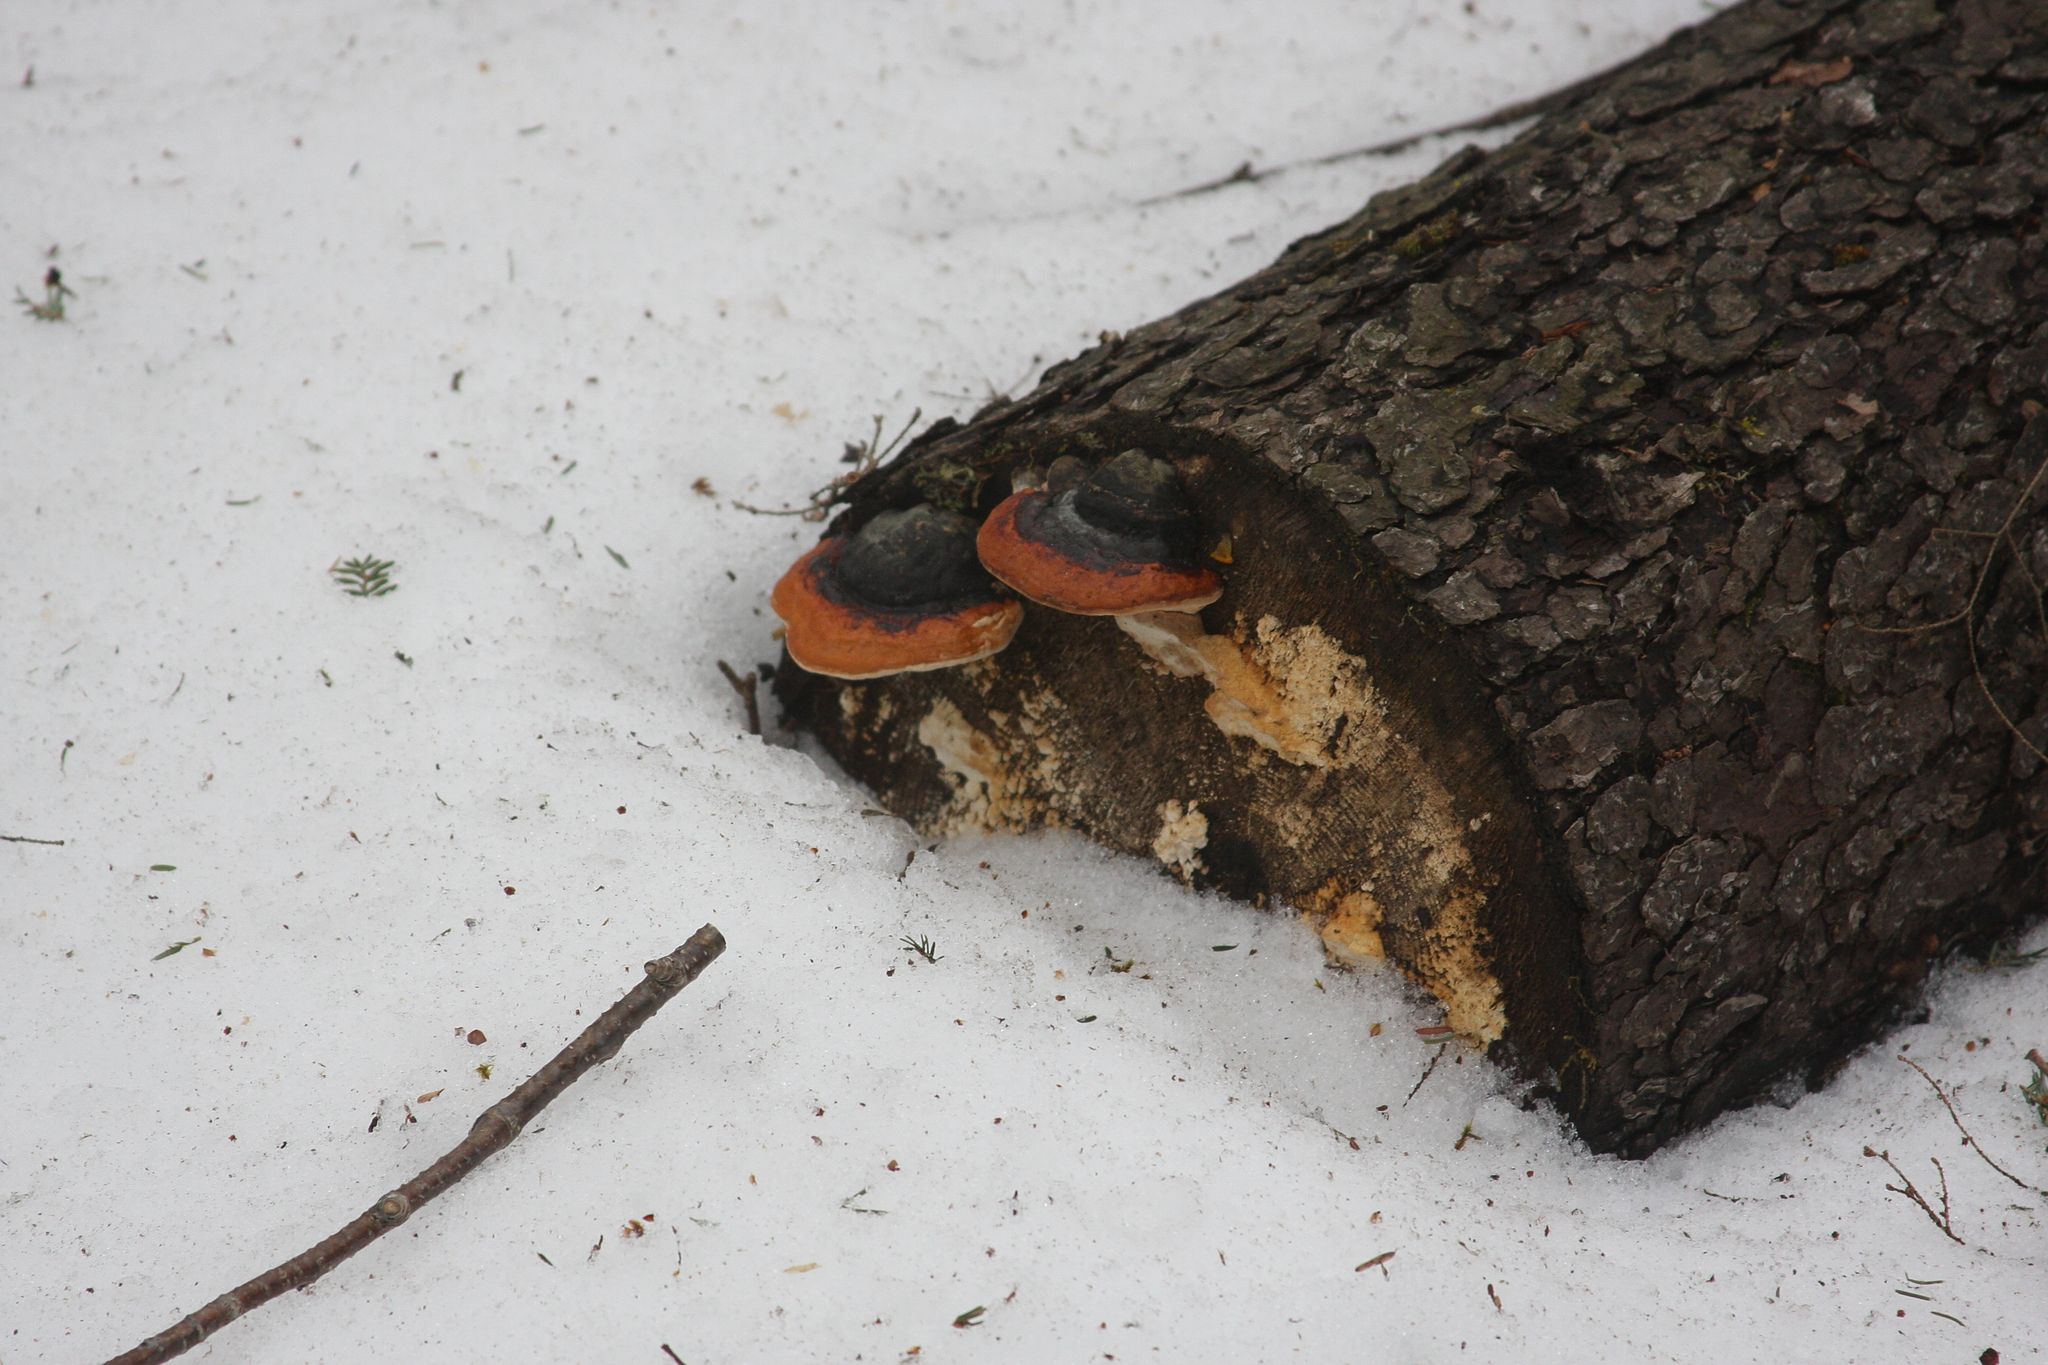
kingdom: Fungi
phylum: Basidiomycota
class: Agaricomycetes
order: Polyporales
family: Fomitopsidaceae
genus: Fomitopsis
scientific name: Fomitopsis mounceae
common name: Northern red belt
